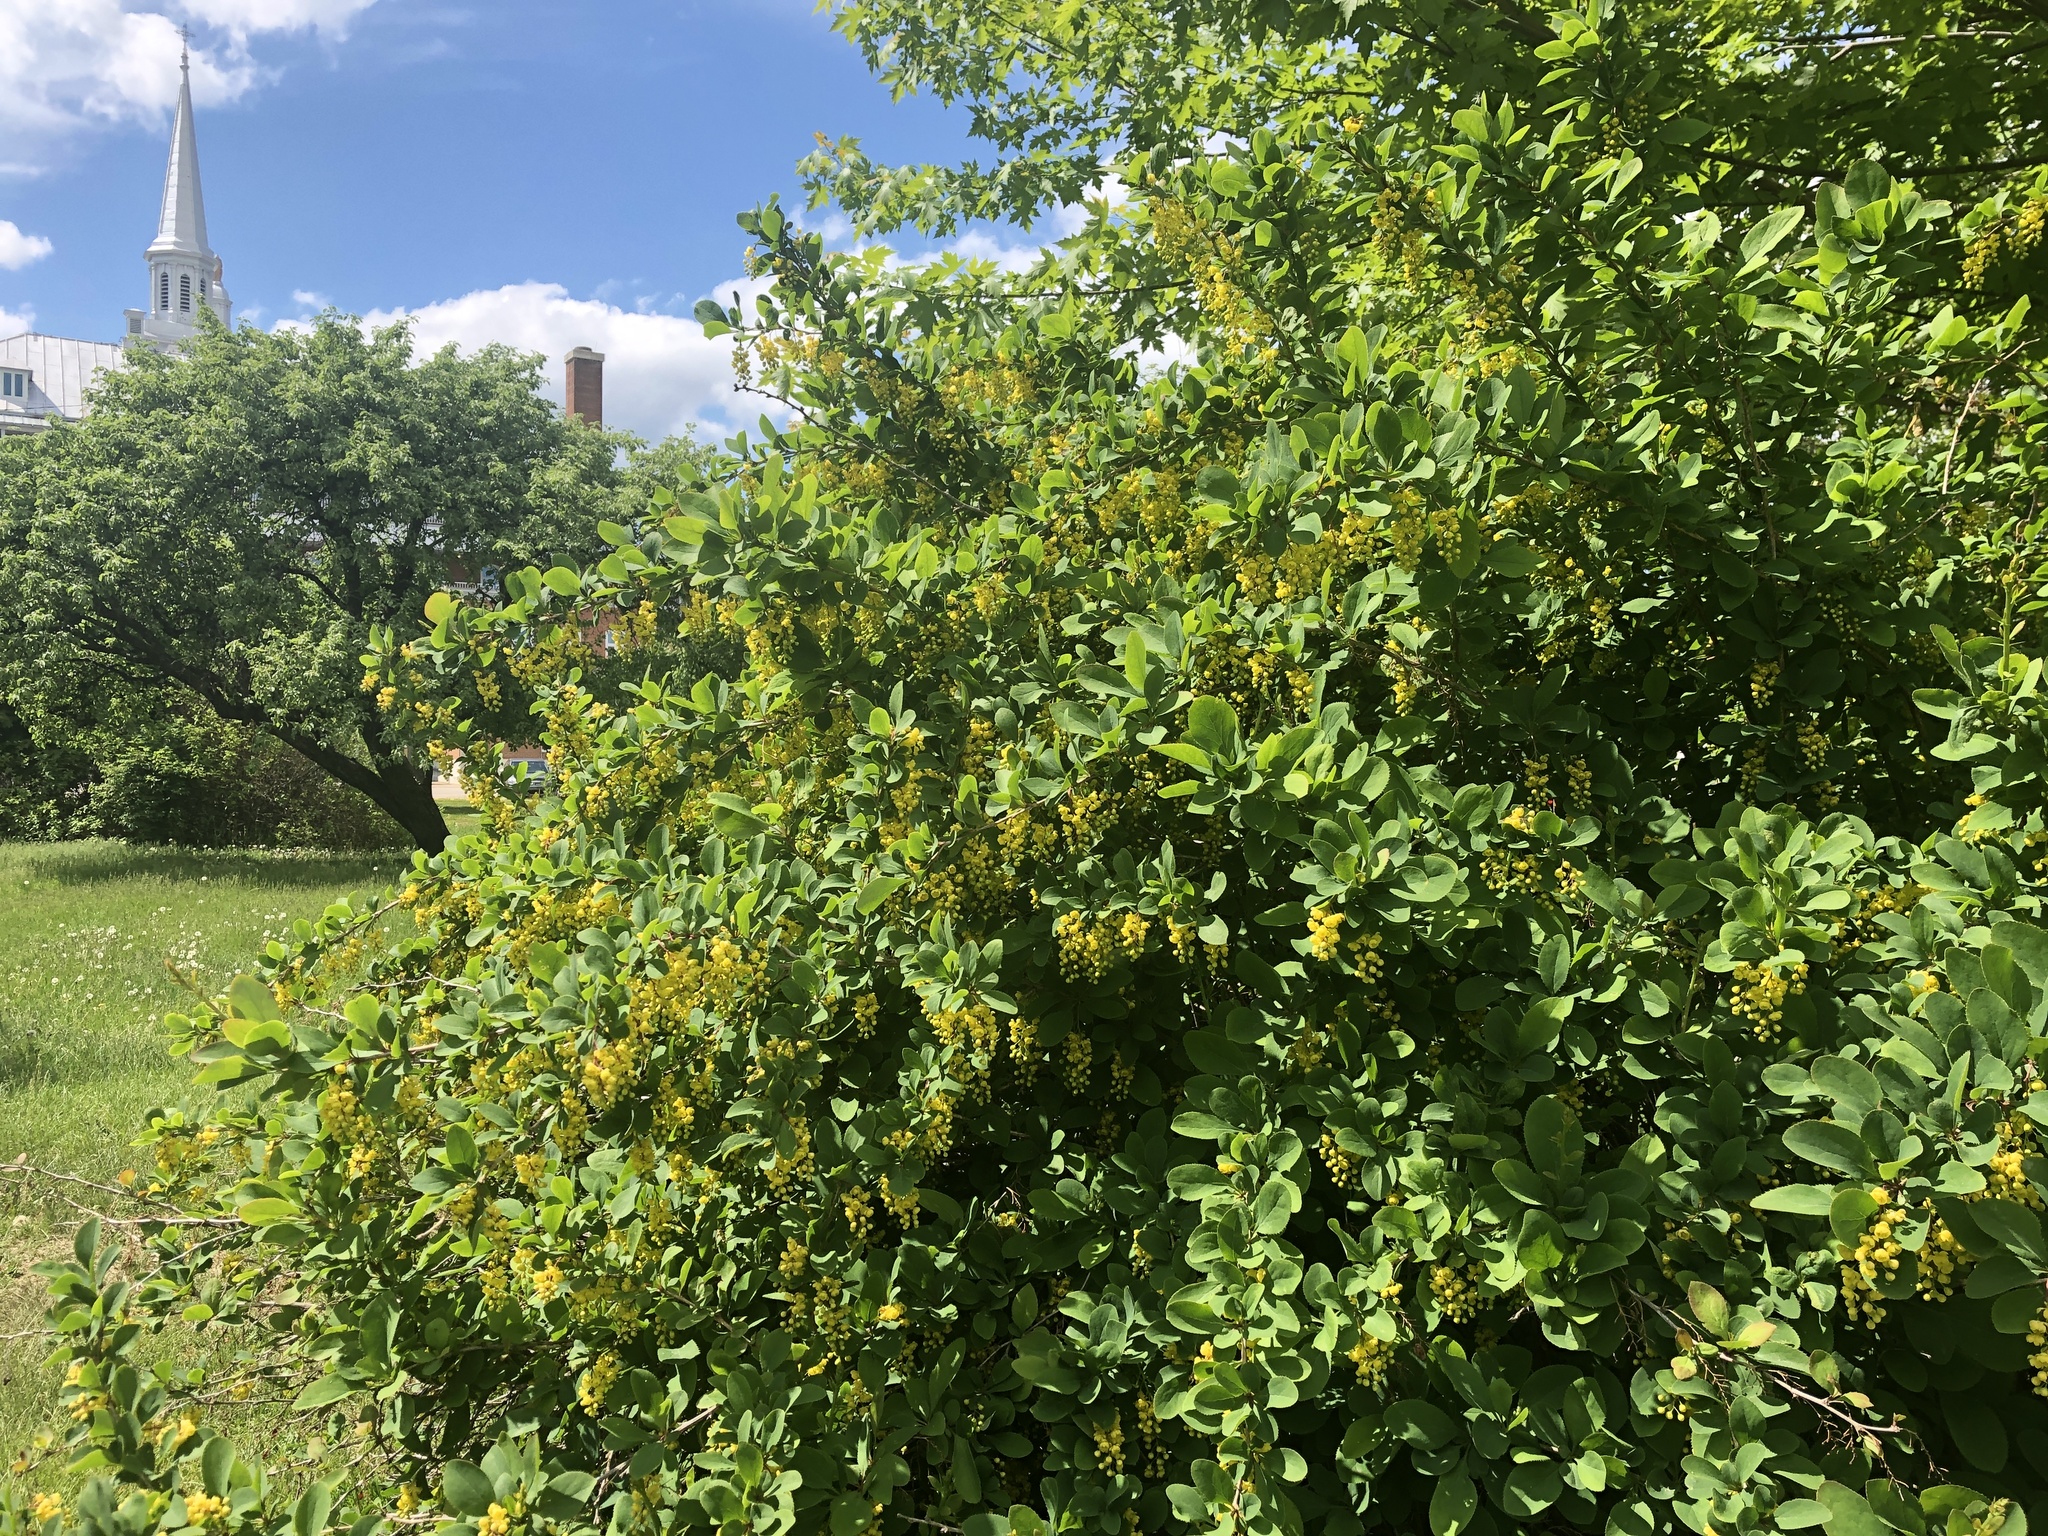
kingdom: Plantae
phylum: Tracheophyta
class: Magnoliopsida
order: Ranunculales
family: Berberidaceae
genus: Berberis
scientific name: Berberis vulgaris
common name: Barberry
